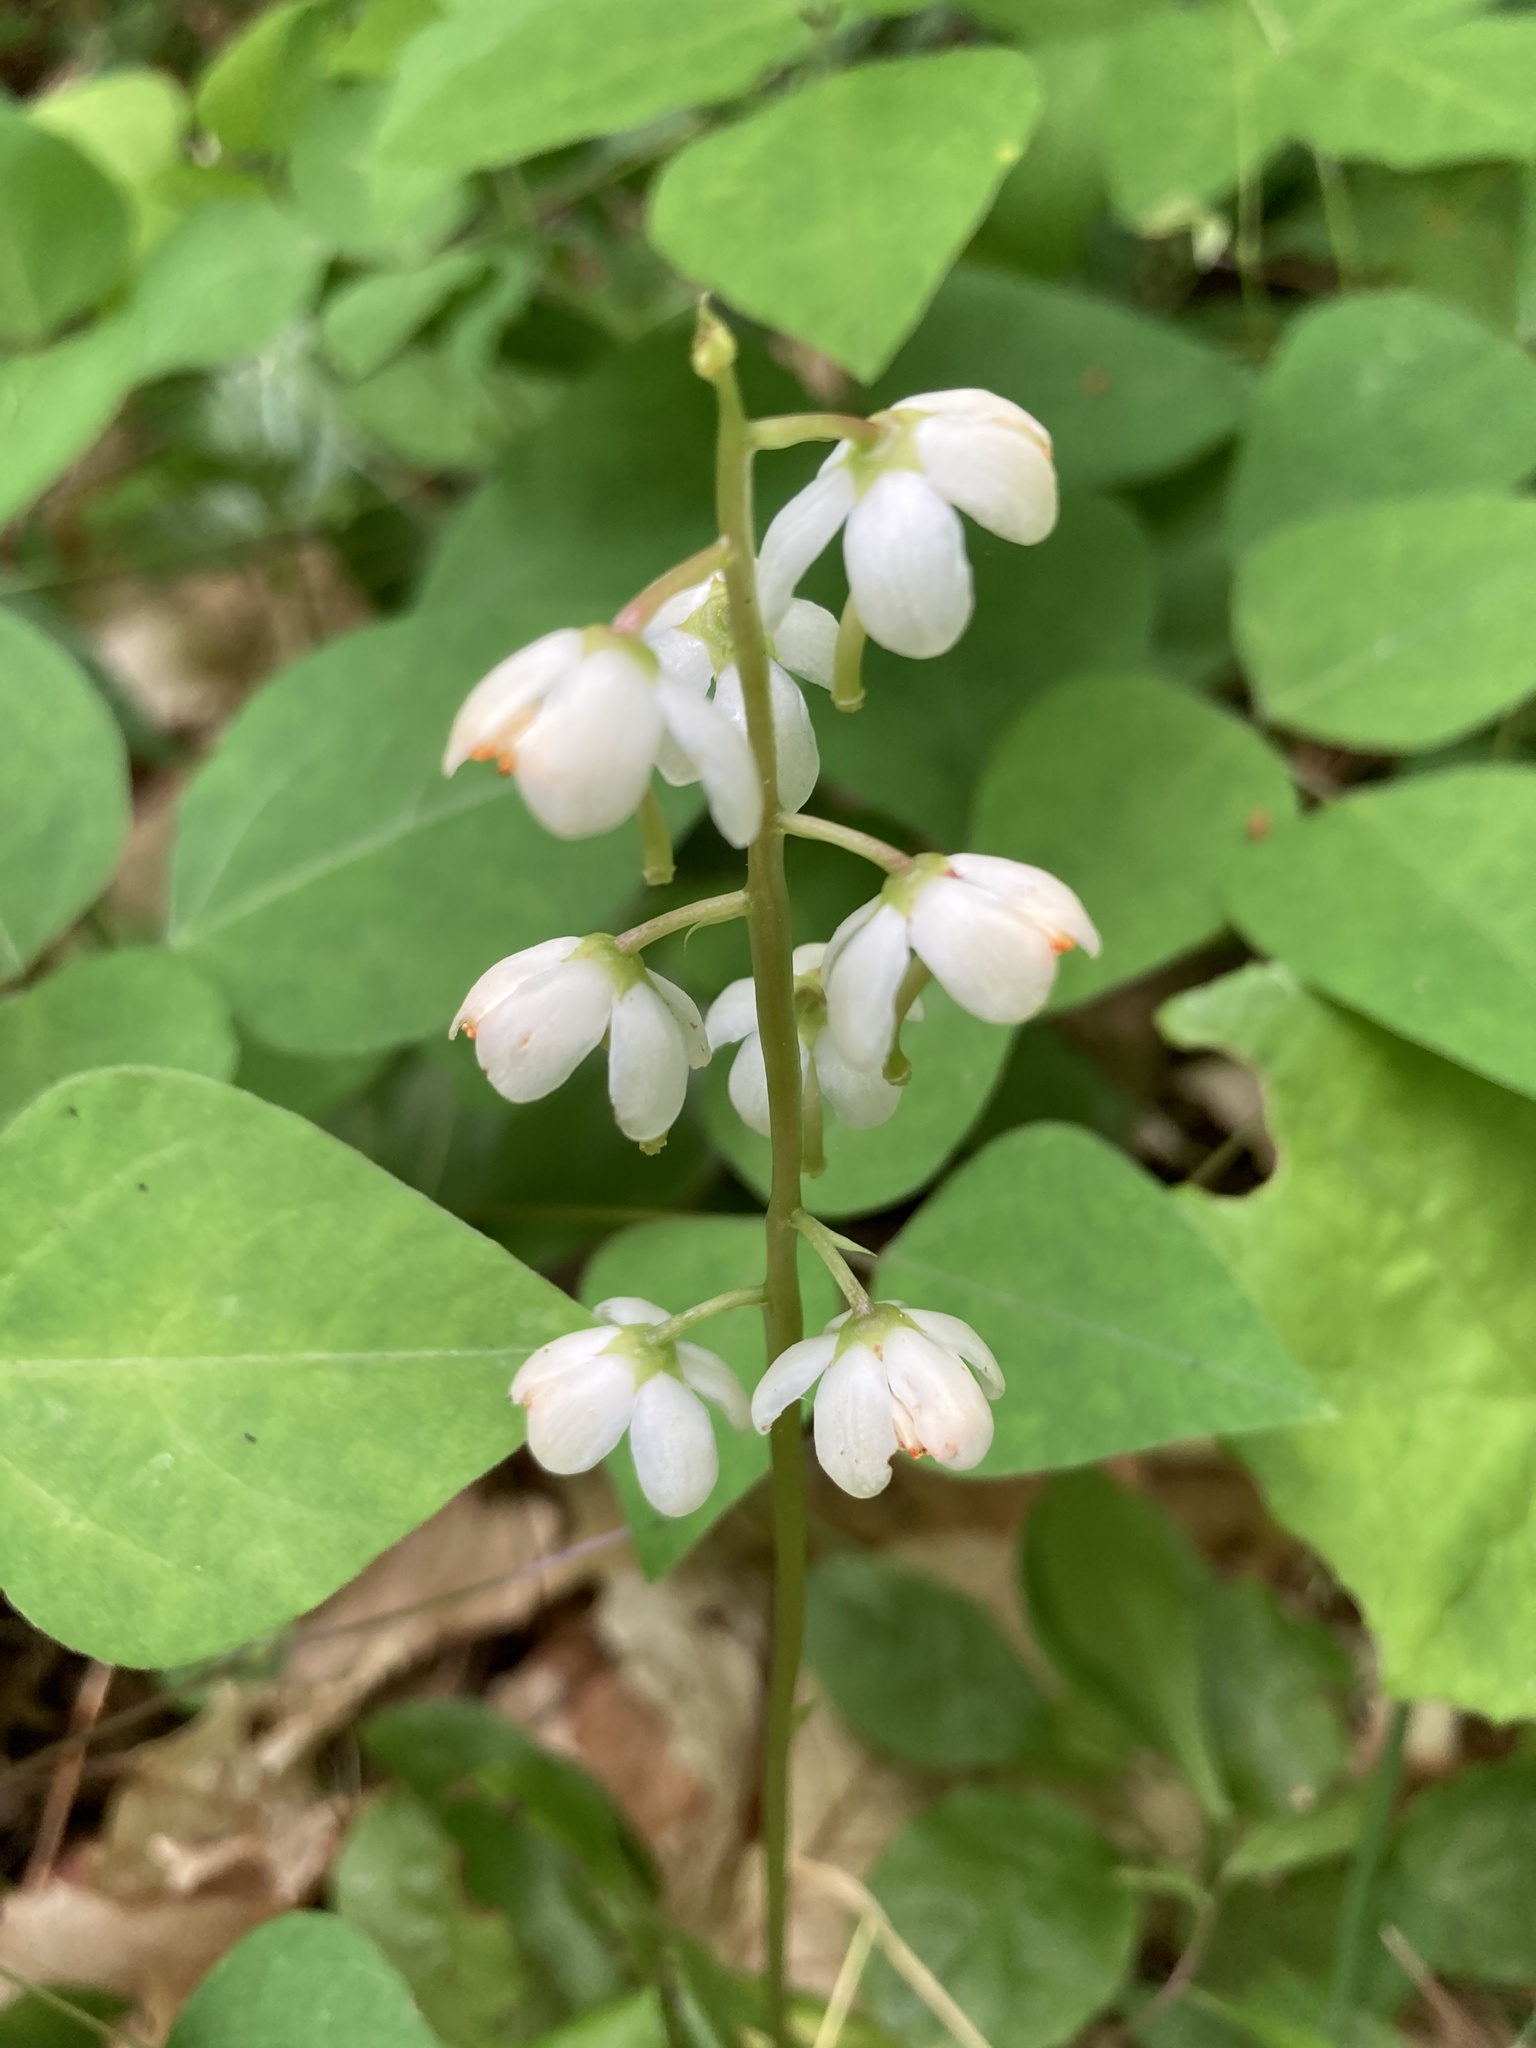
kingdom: Plantae
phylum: Tracheophyta
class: Magnoliopsida
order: Ericales
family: Ericaceae
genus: Pyrola
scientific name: Pyrola elliptica
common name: Shinleaf
